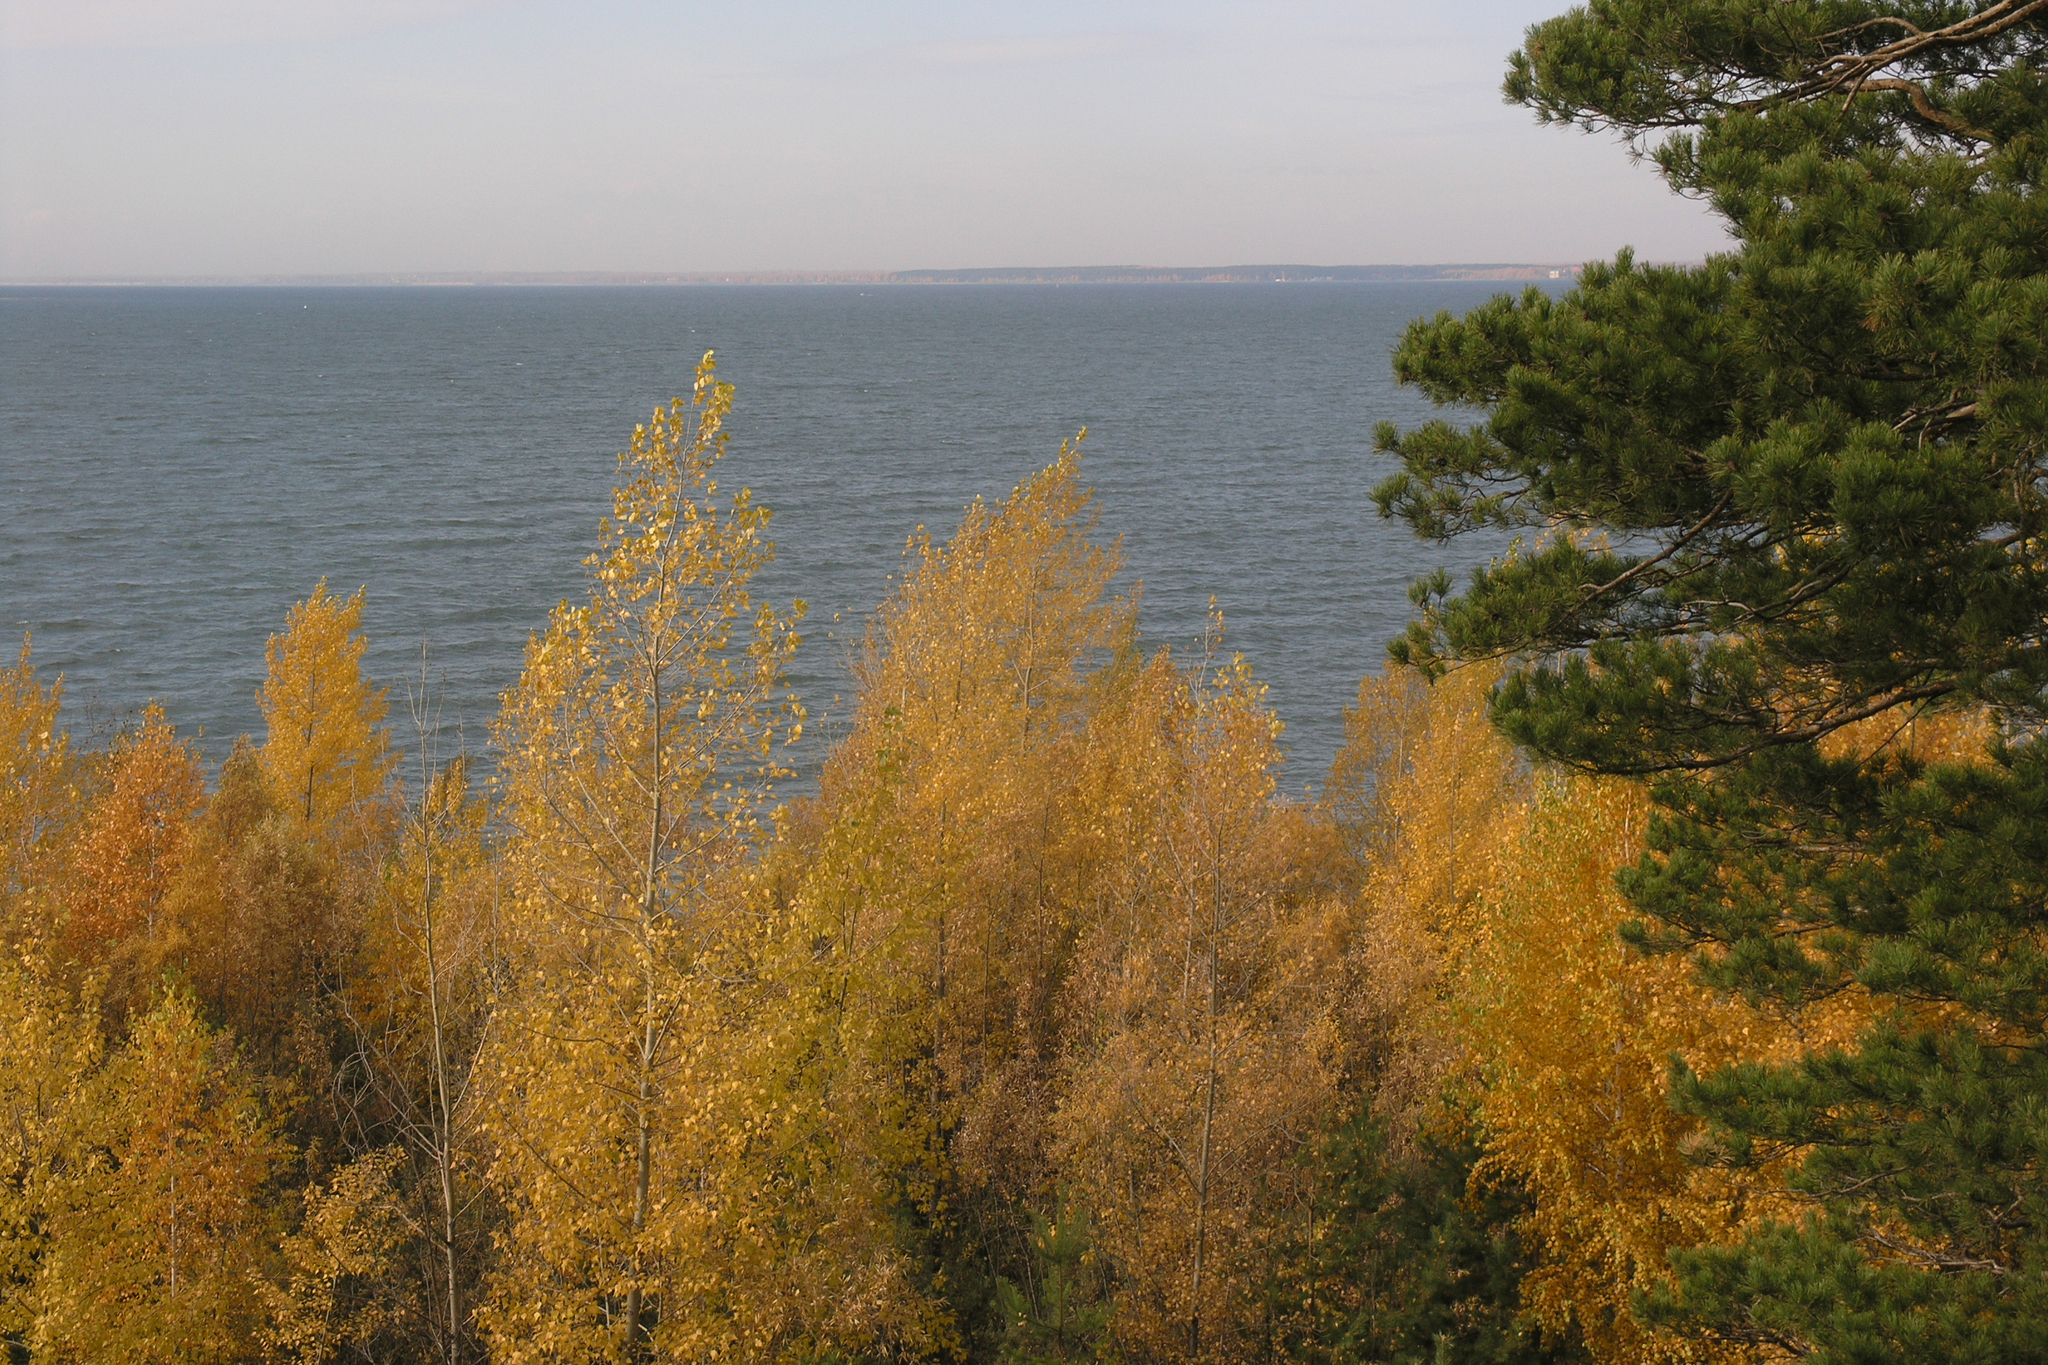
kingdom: Plantae
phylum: Tracheophyta
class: Pinopsida
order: Pinales
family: Pinaceae
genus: Pinus
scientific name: Pinus sylvestris
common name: Scots pine
